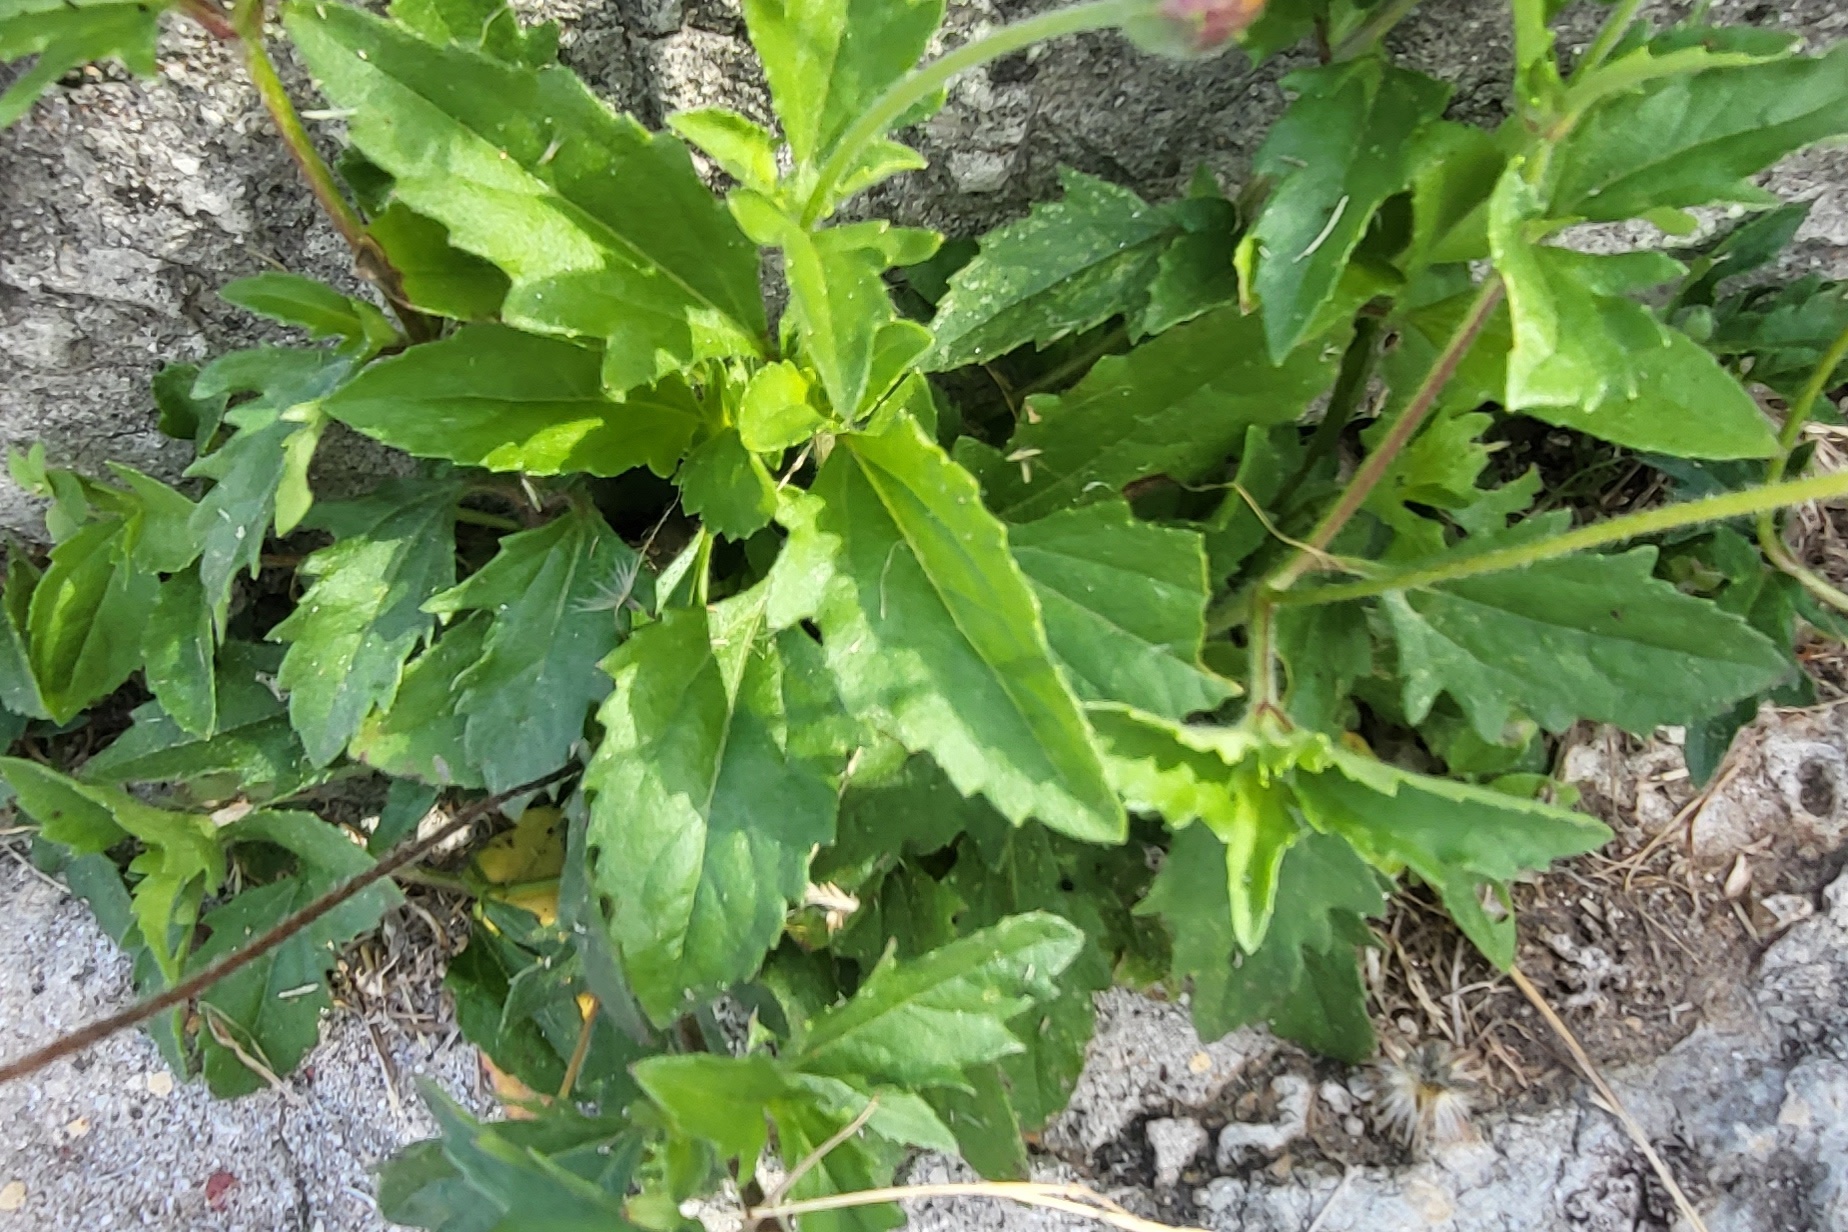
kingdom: Plantae
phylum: Tracheophyta
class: Magnoliopsida
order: Asterales
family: Asteraceae
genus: Tridax
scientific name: Tridax procumbens
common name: Coatbuttons
